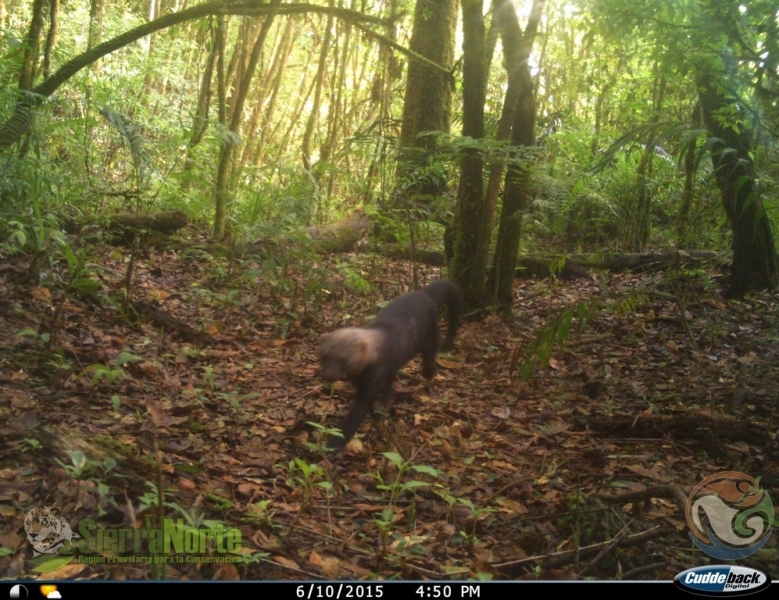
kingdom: Animalia
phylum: Chordata
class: Mammalia
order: Carnivora
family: Mustelidae
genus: Eira
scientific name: Eira barbara
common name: Tayra
